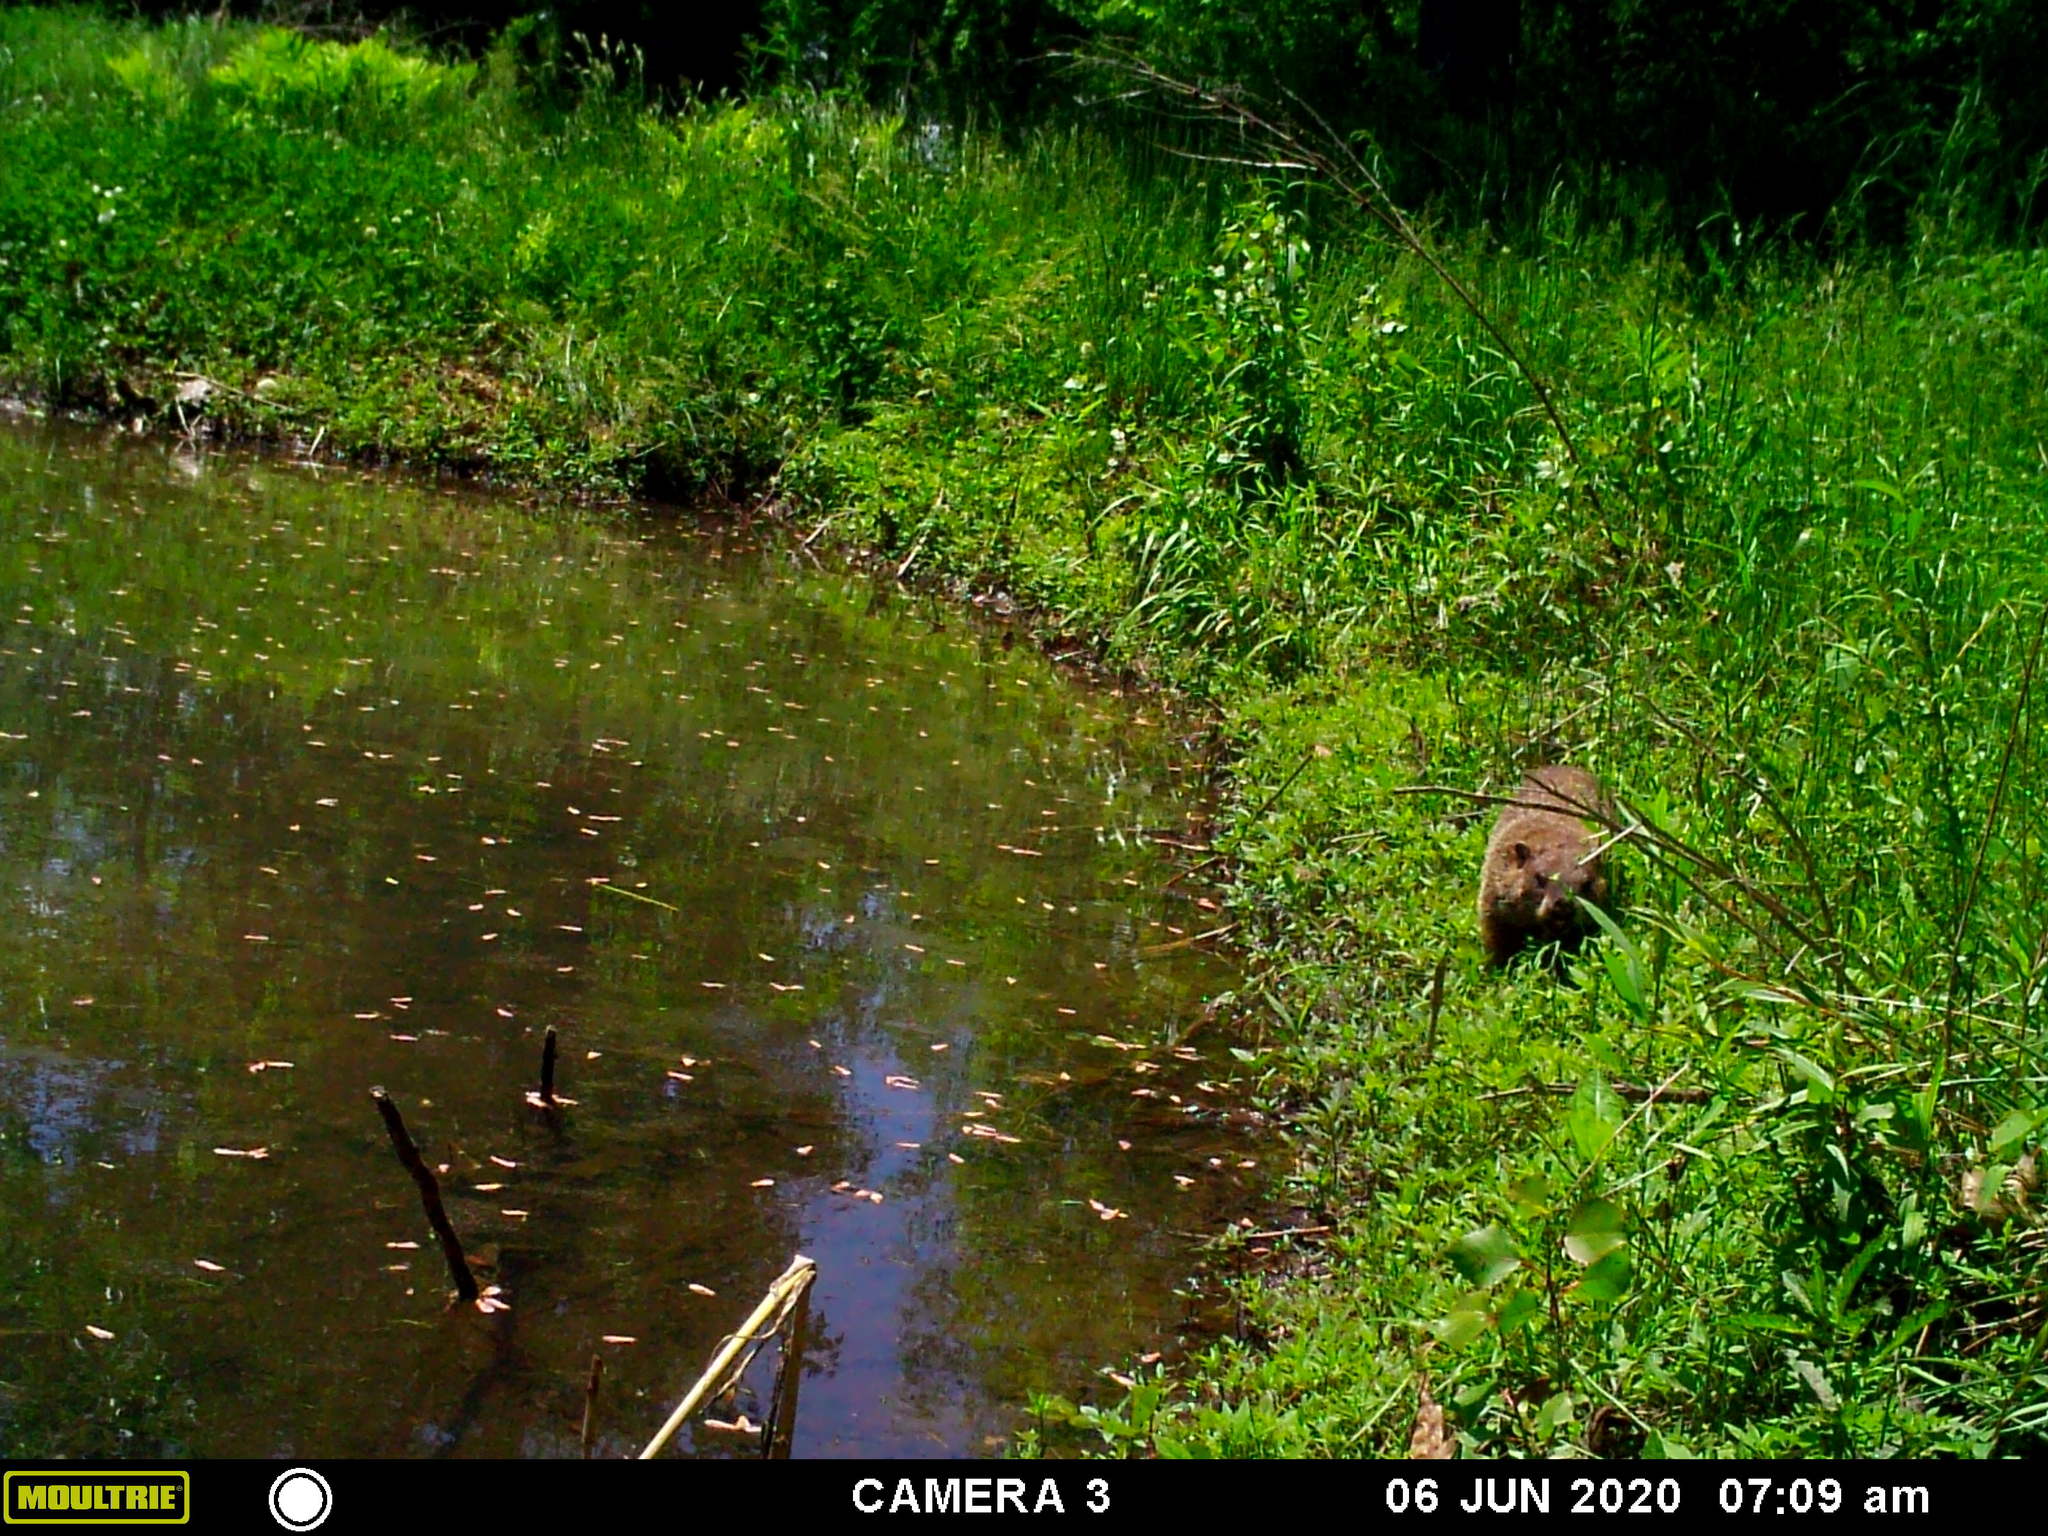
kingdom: Animalia
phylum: Chordata
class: Mammalia
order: Rodentia
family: Sciuridae
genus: Marmota
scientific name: Marmota monax
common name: Groundhog
